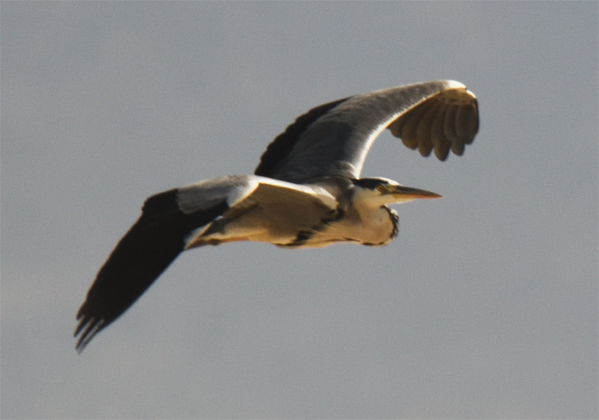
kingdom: Animalia
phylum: Chordata
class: Aves
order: Pelecaniformes
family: Ardeidae
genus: Ardea
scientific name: Ardea cinerea
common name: Grey heron
